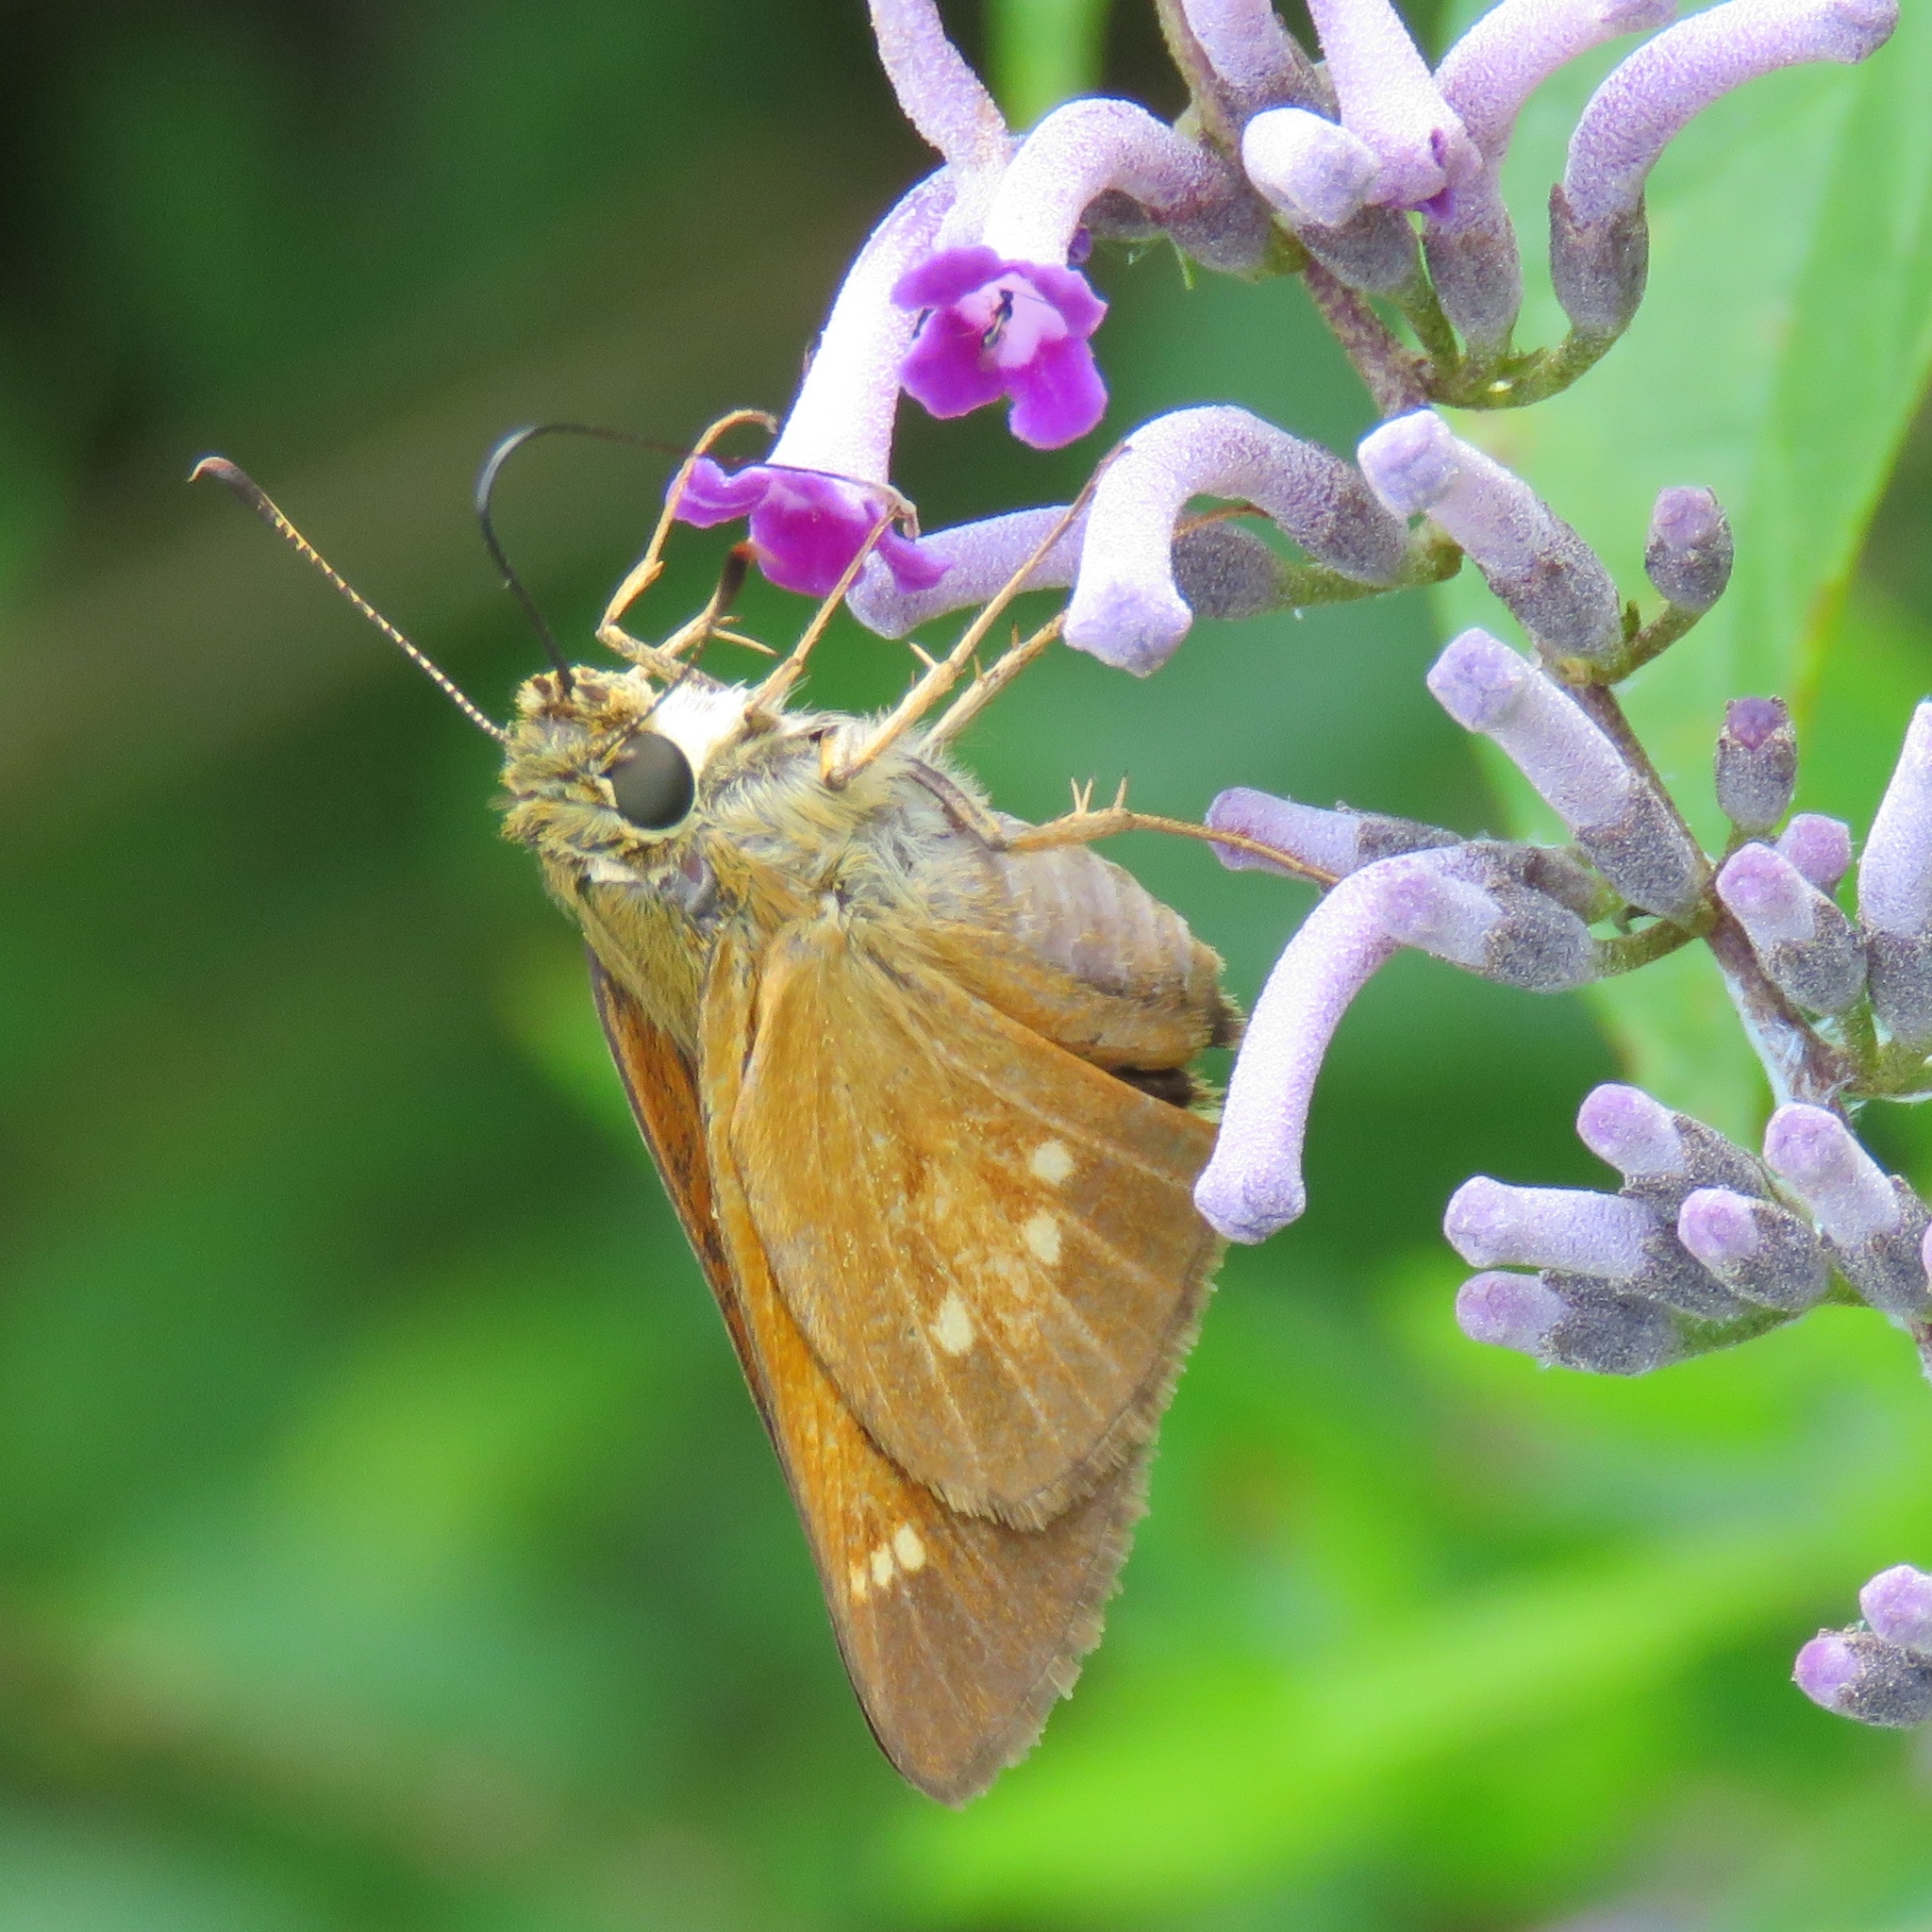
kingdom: Animalia
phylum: Arthropoda
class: Insecta
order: Lepidoptera
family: Hesperiidae
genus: Poanes
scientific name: Poanes yehl
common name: Yehl skipper
